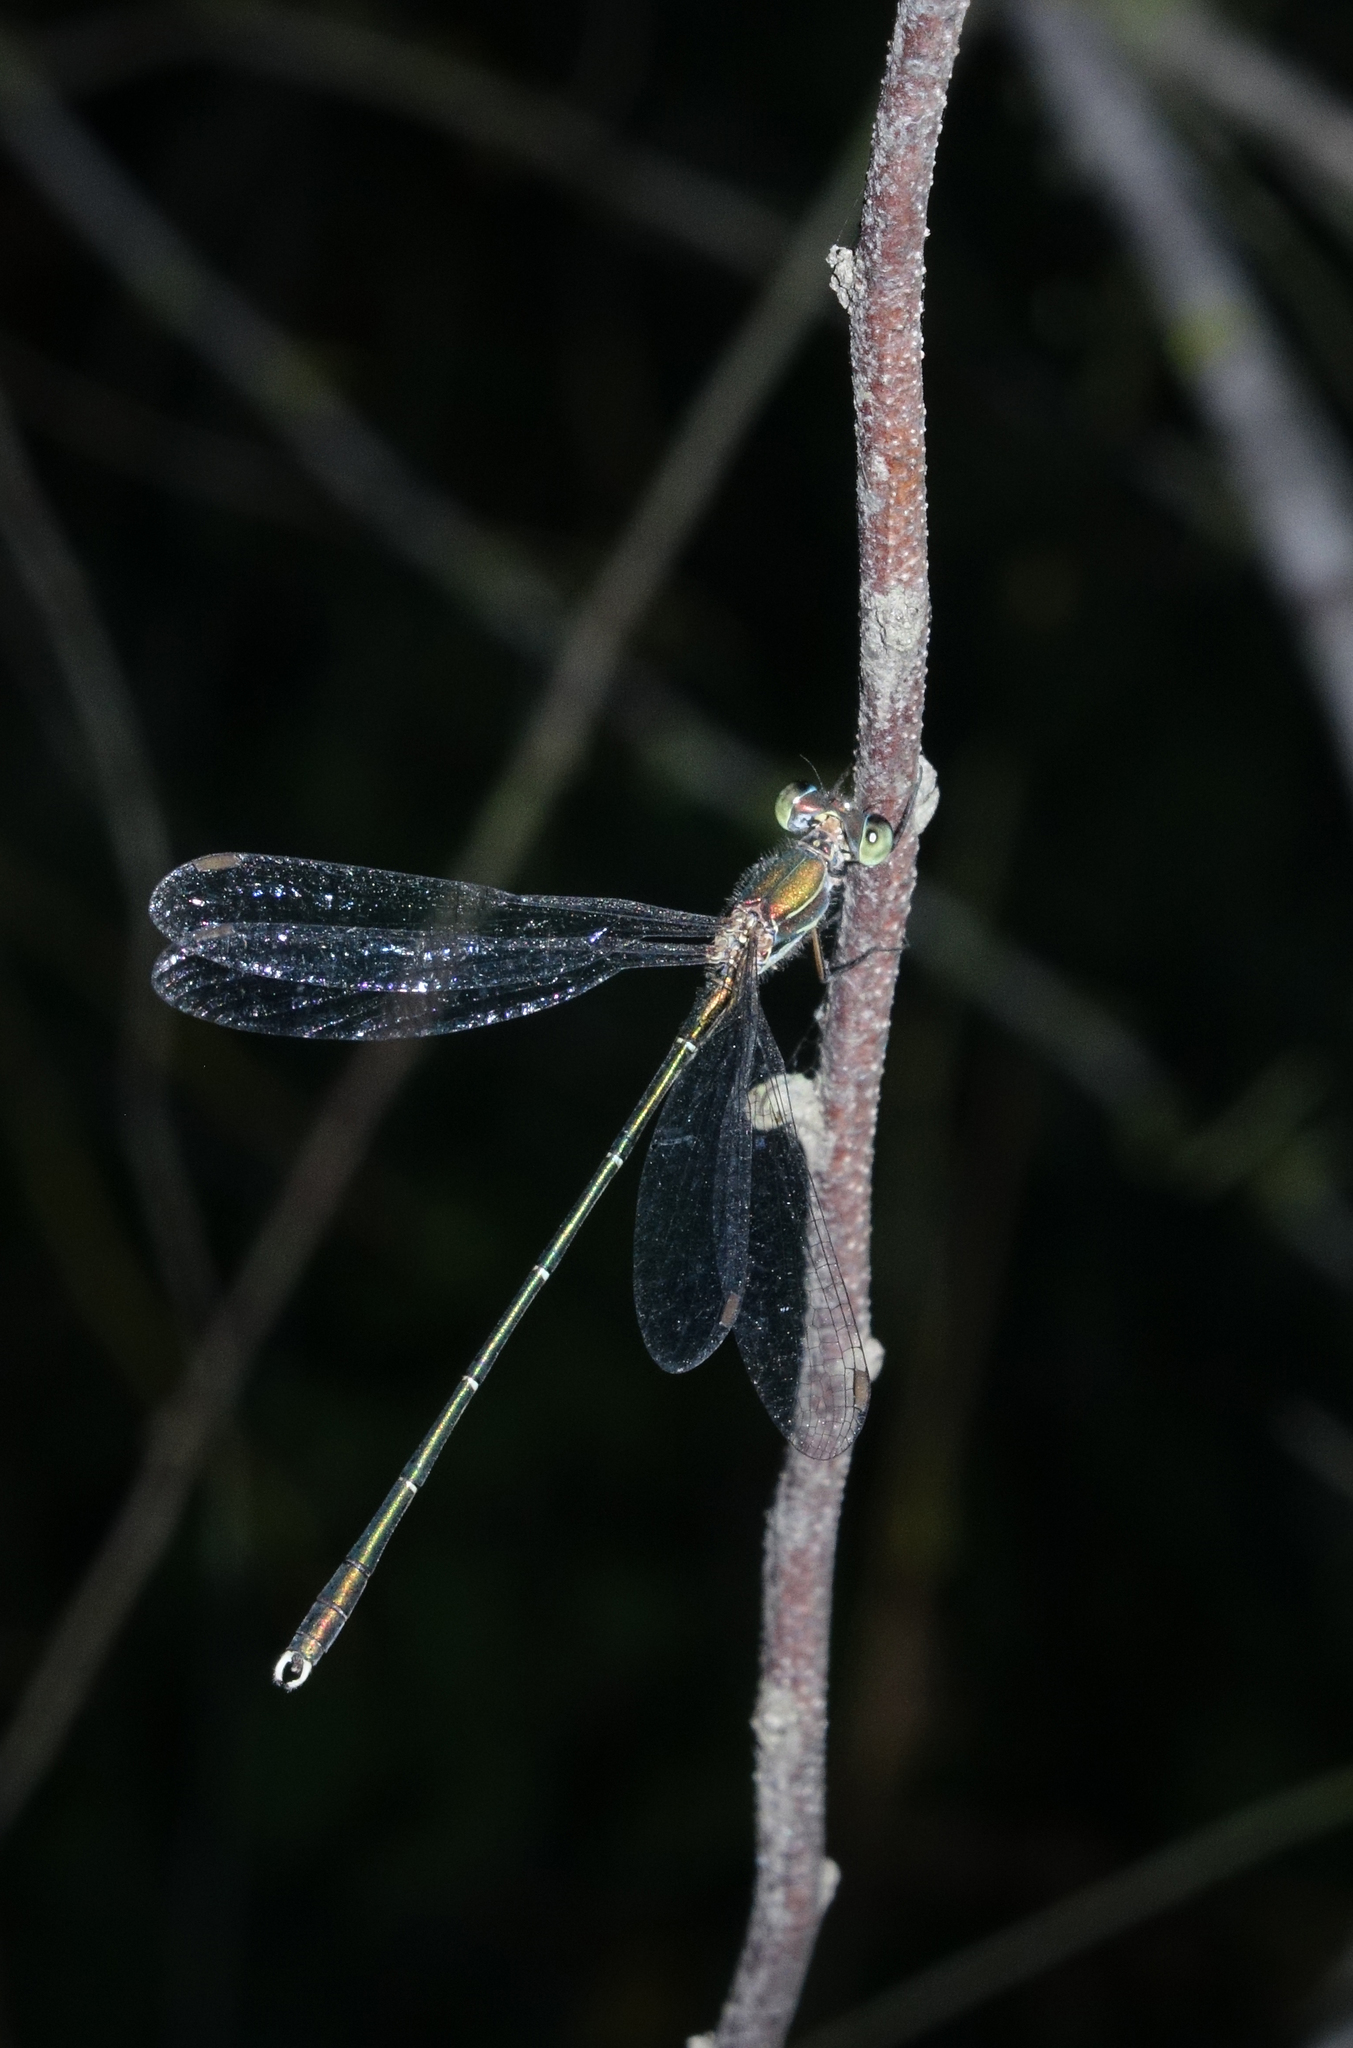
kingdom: Animalia
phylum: Arthropoda
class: Insecta
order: Odonata
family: Lestidae
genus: Chalcolestes
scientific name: Chalcolestes parvidens
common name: Eastern willow spreadwing
